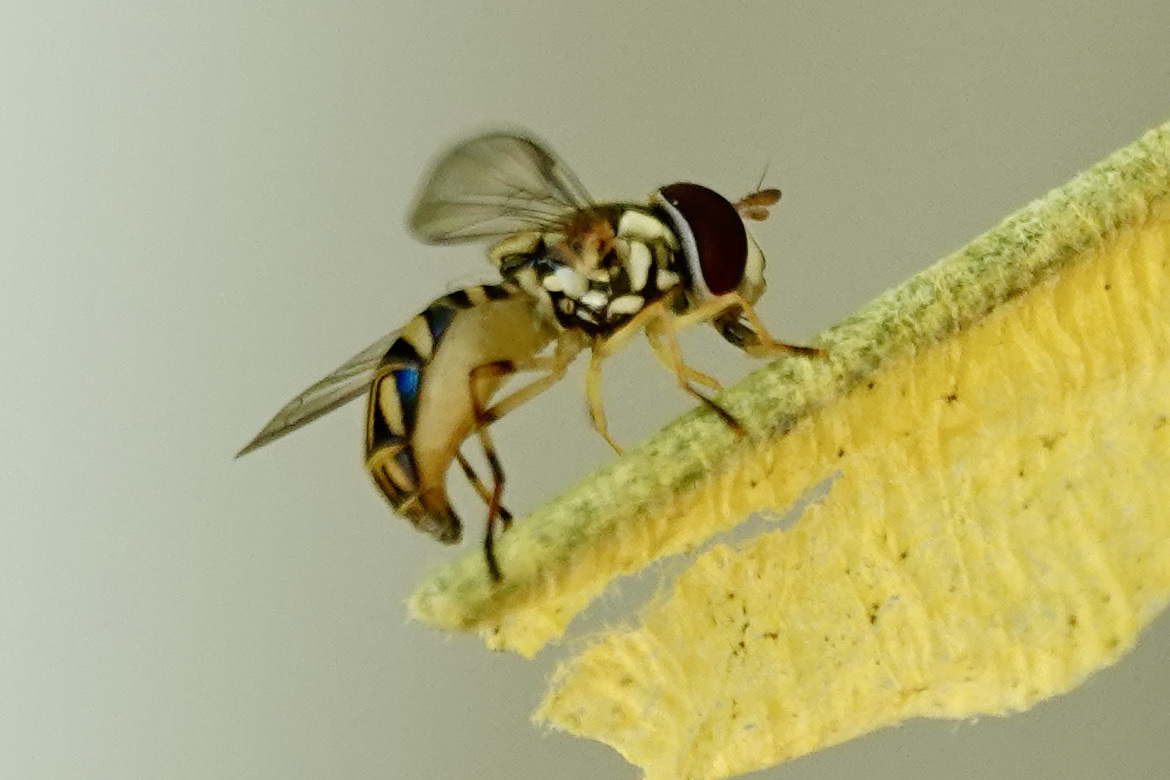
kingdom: Animalia
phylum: Arthropoda
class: Insecta
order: Diptera
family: Syrphidae
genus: Allograpta
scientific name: Allograpta obliqua
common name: Common oblique syrphid
